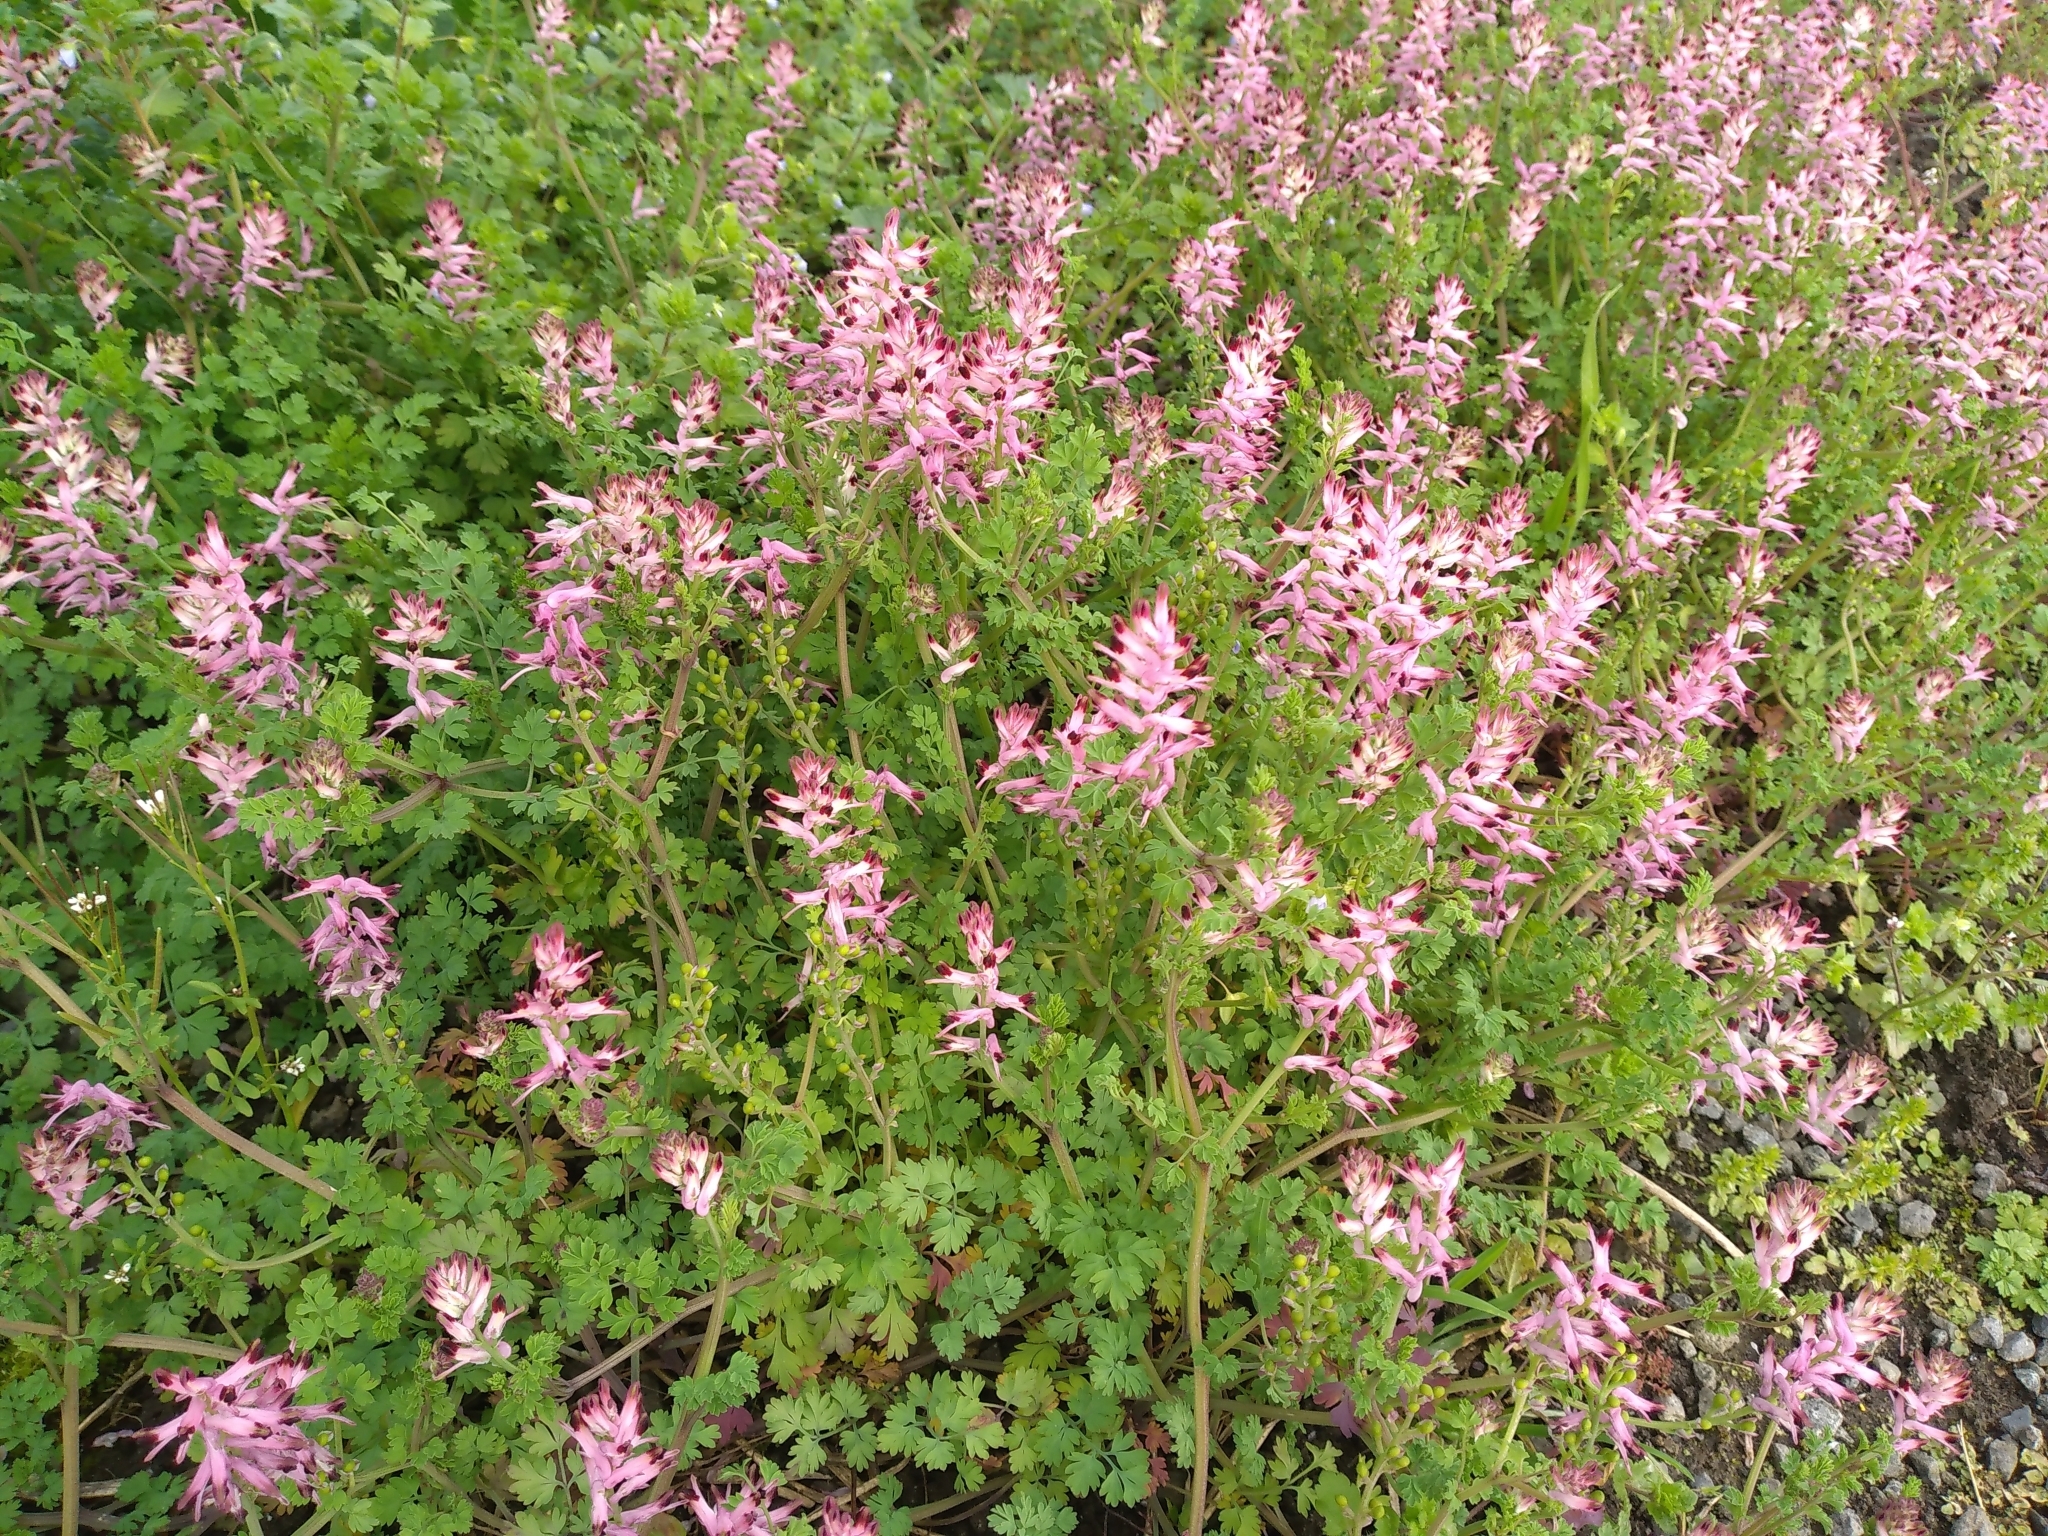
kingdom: Plantae
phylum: Tracheophyta
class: Magnoliopsida
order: Ranunculales
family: Papaveraceae
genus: Fumaria
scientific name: Fumaria bastardii
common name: Tall ramping-fumitory
